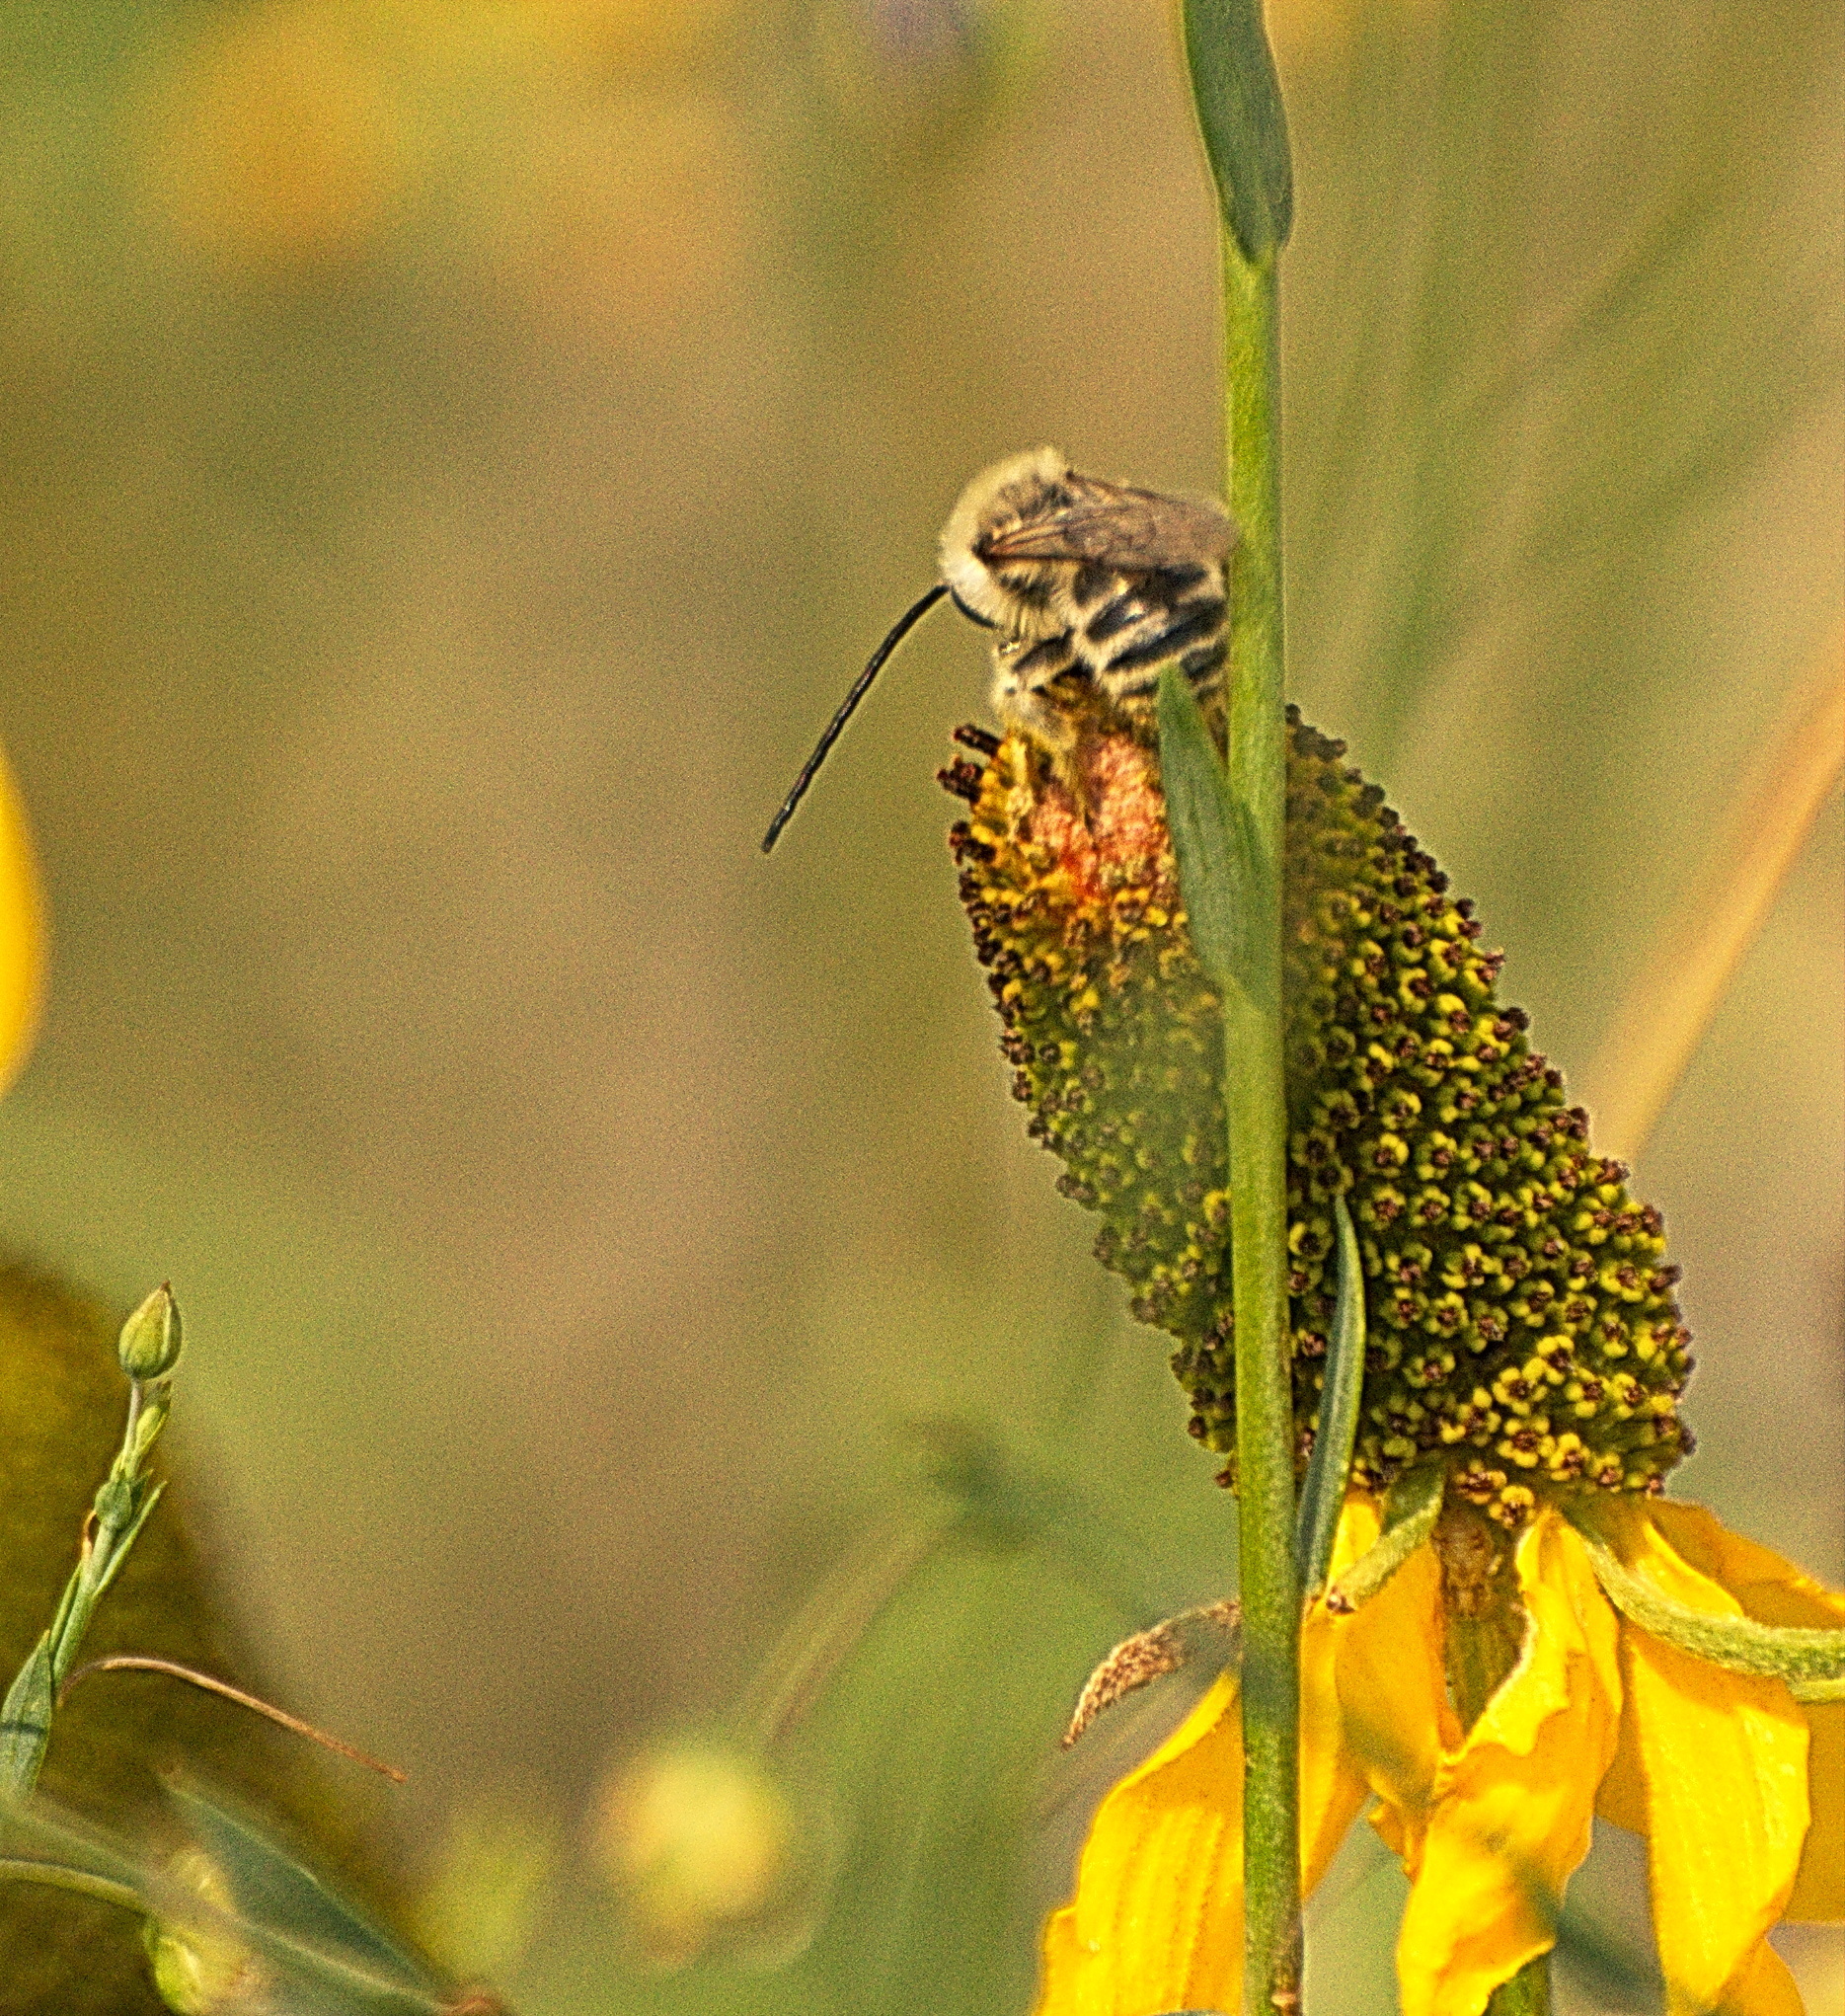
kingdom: Animalia
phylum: Arthropoda
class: Insecta
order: Hymenoptera
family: Apidae
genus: Melissodes
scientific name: Melissodes
